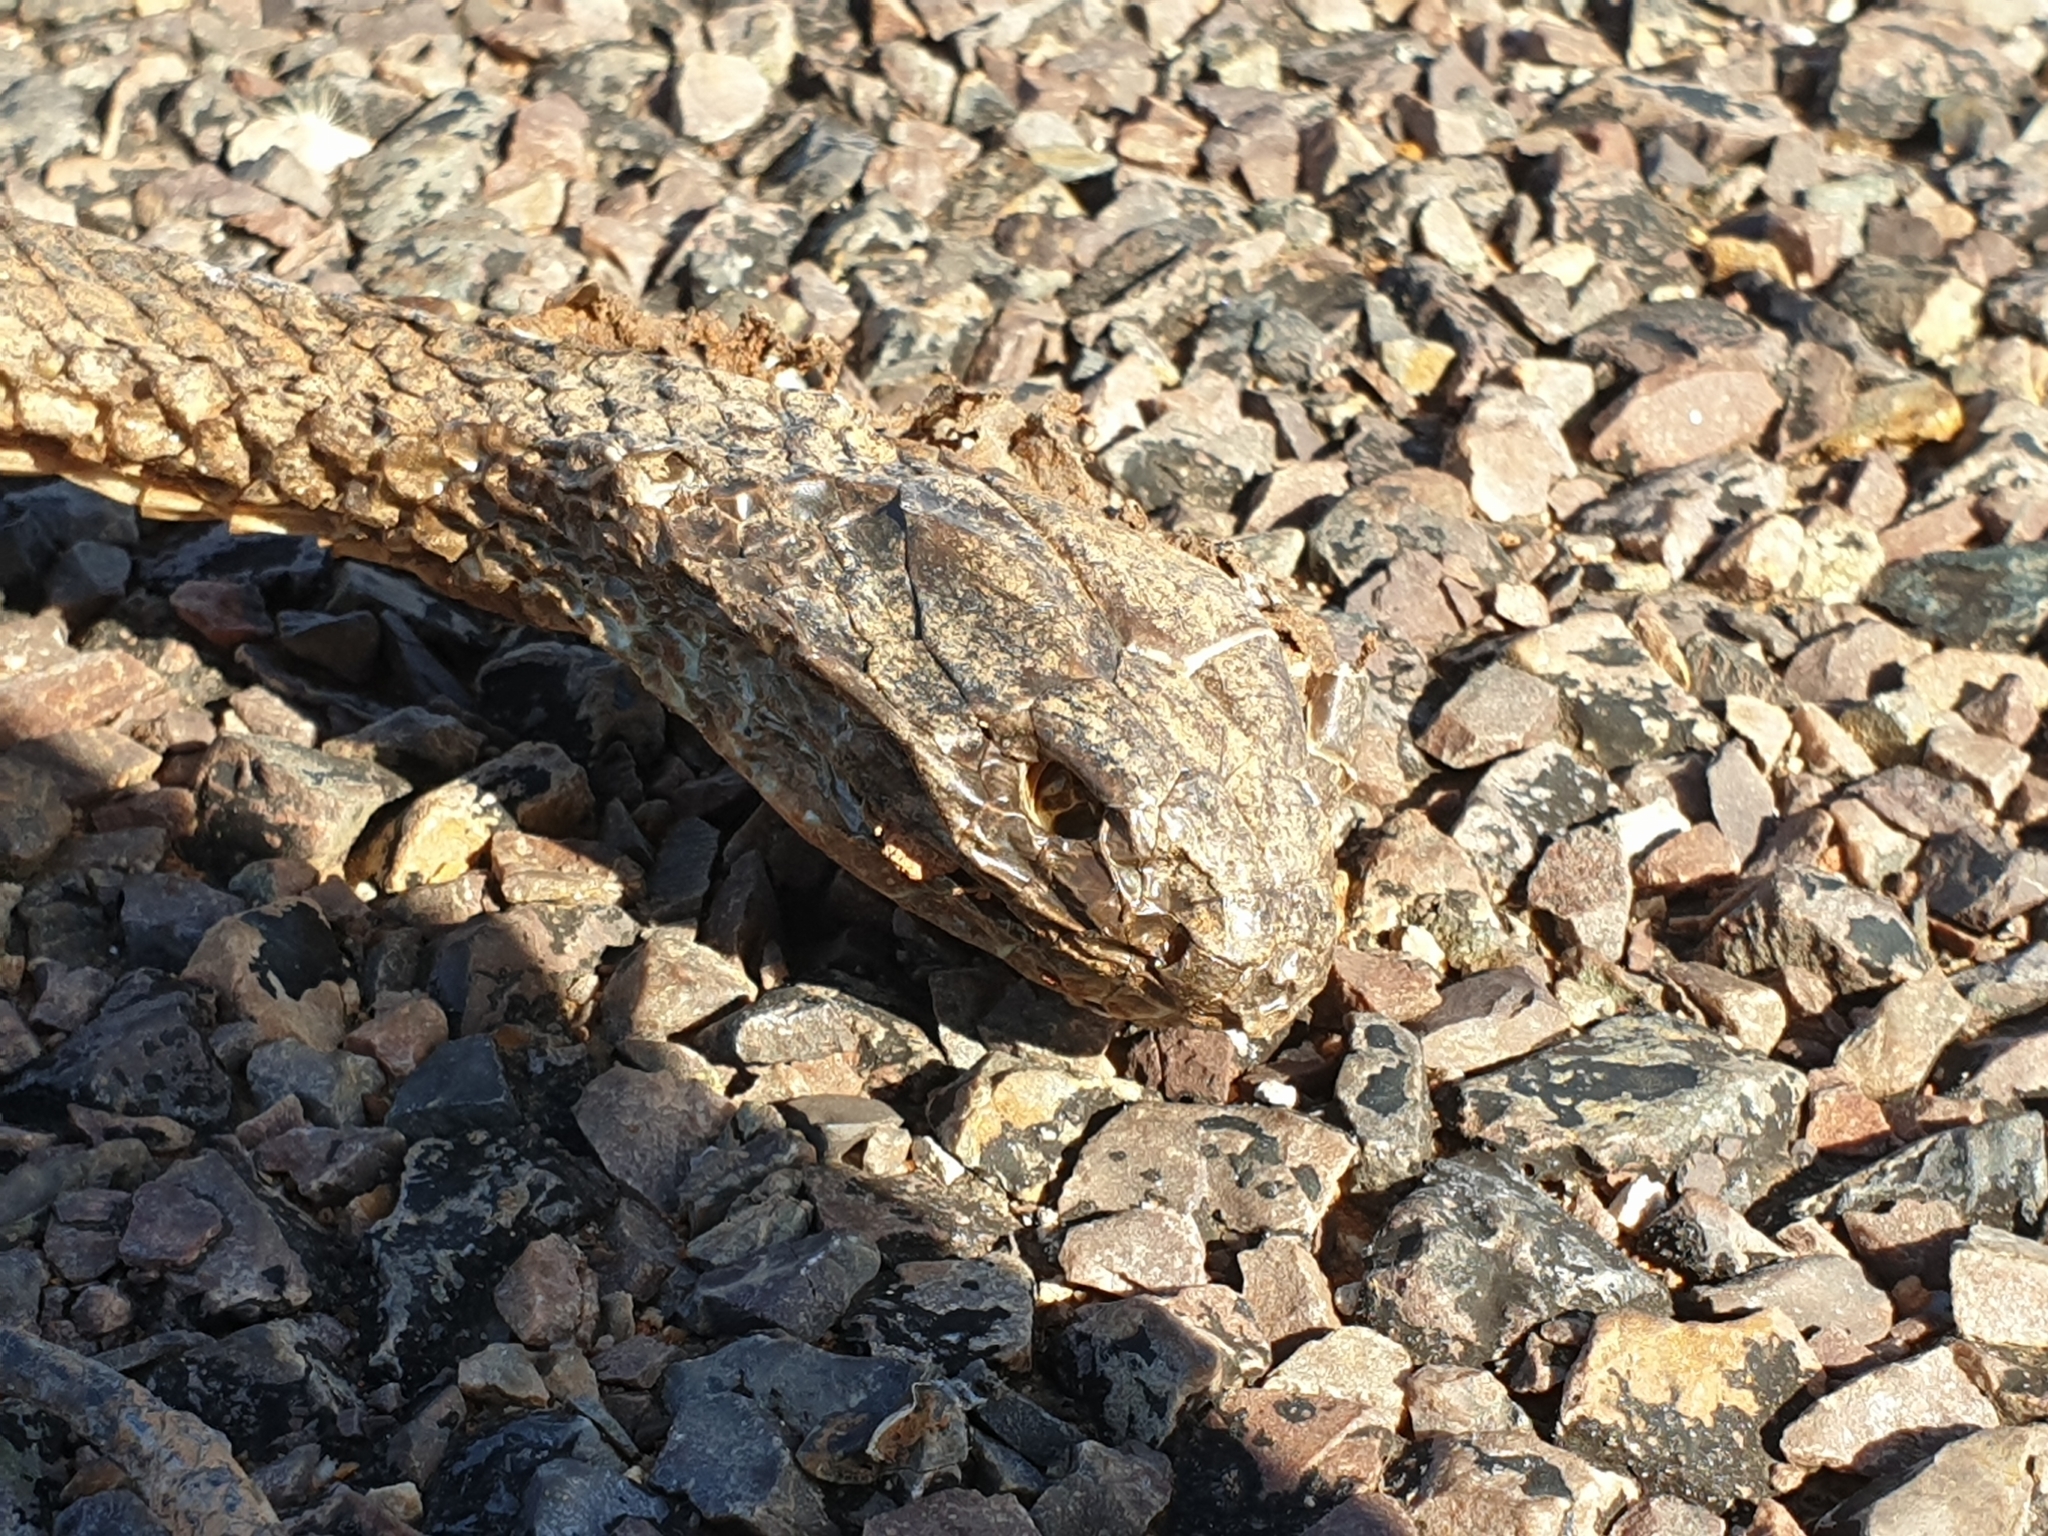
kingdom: Animalia
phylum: Chordata
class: Squamata
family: Elapidae
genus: Pseudechis
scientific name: Pseudechis australis
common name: King brown snake
